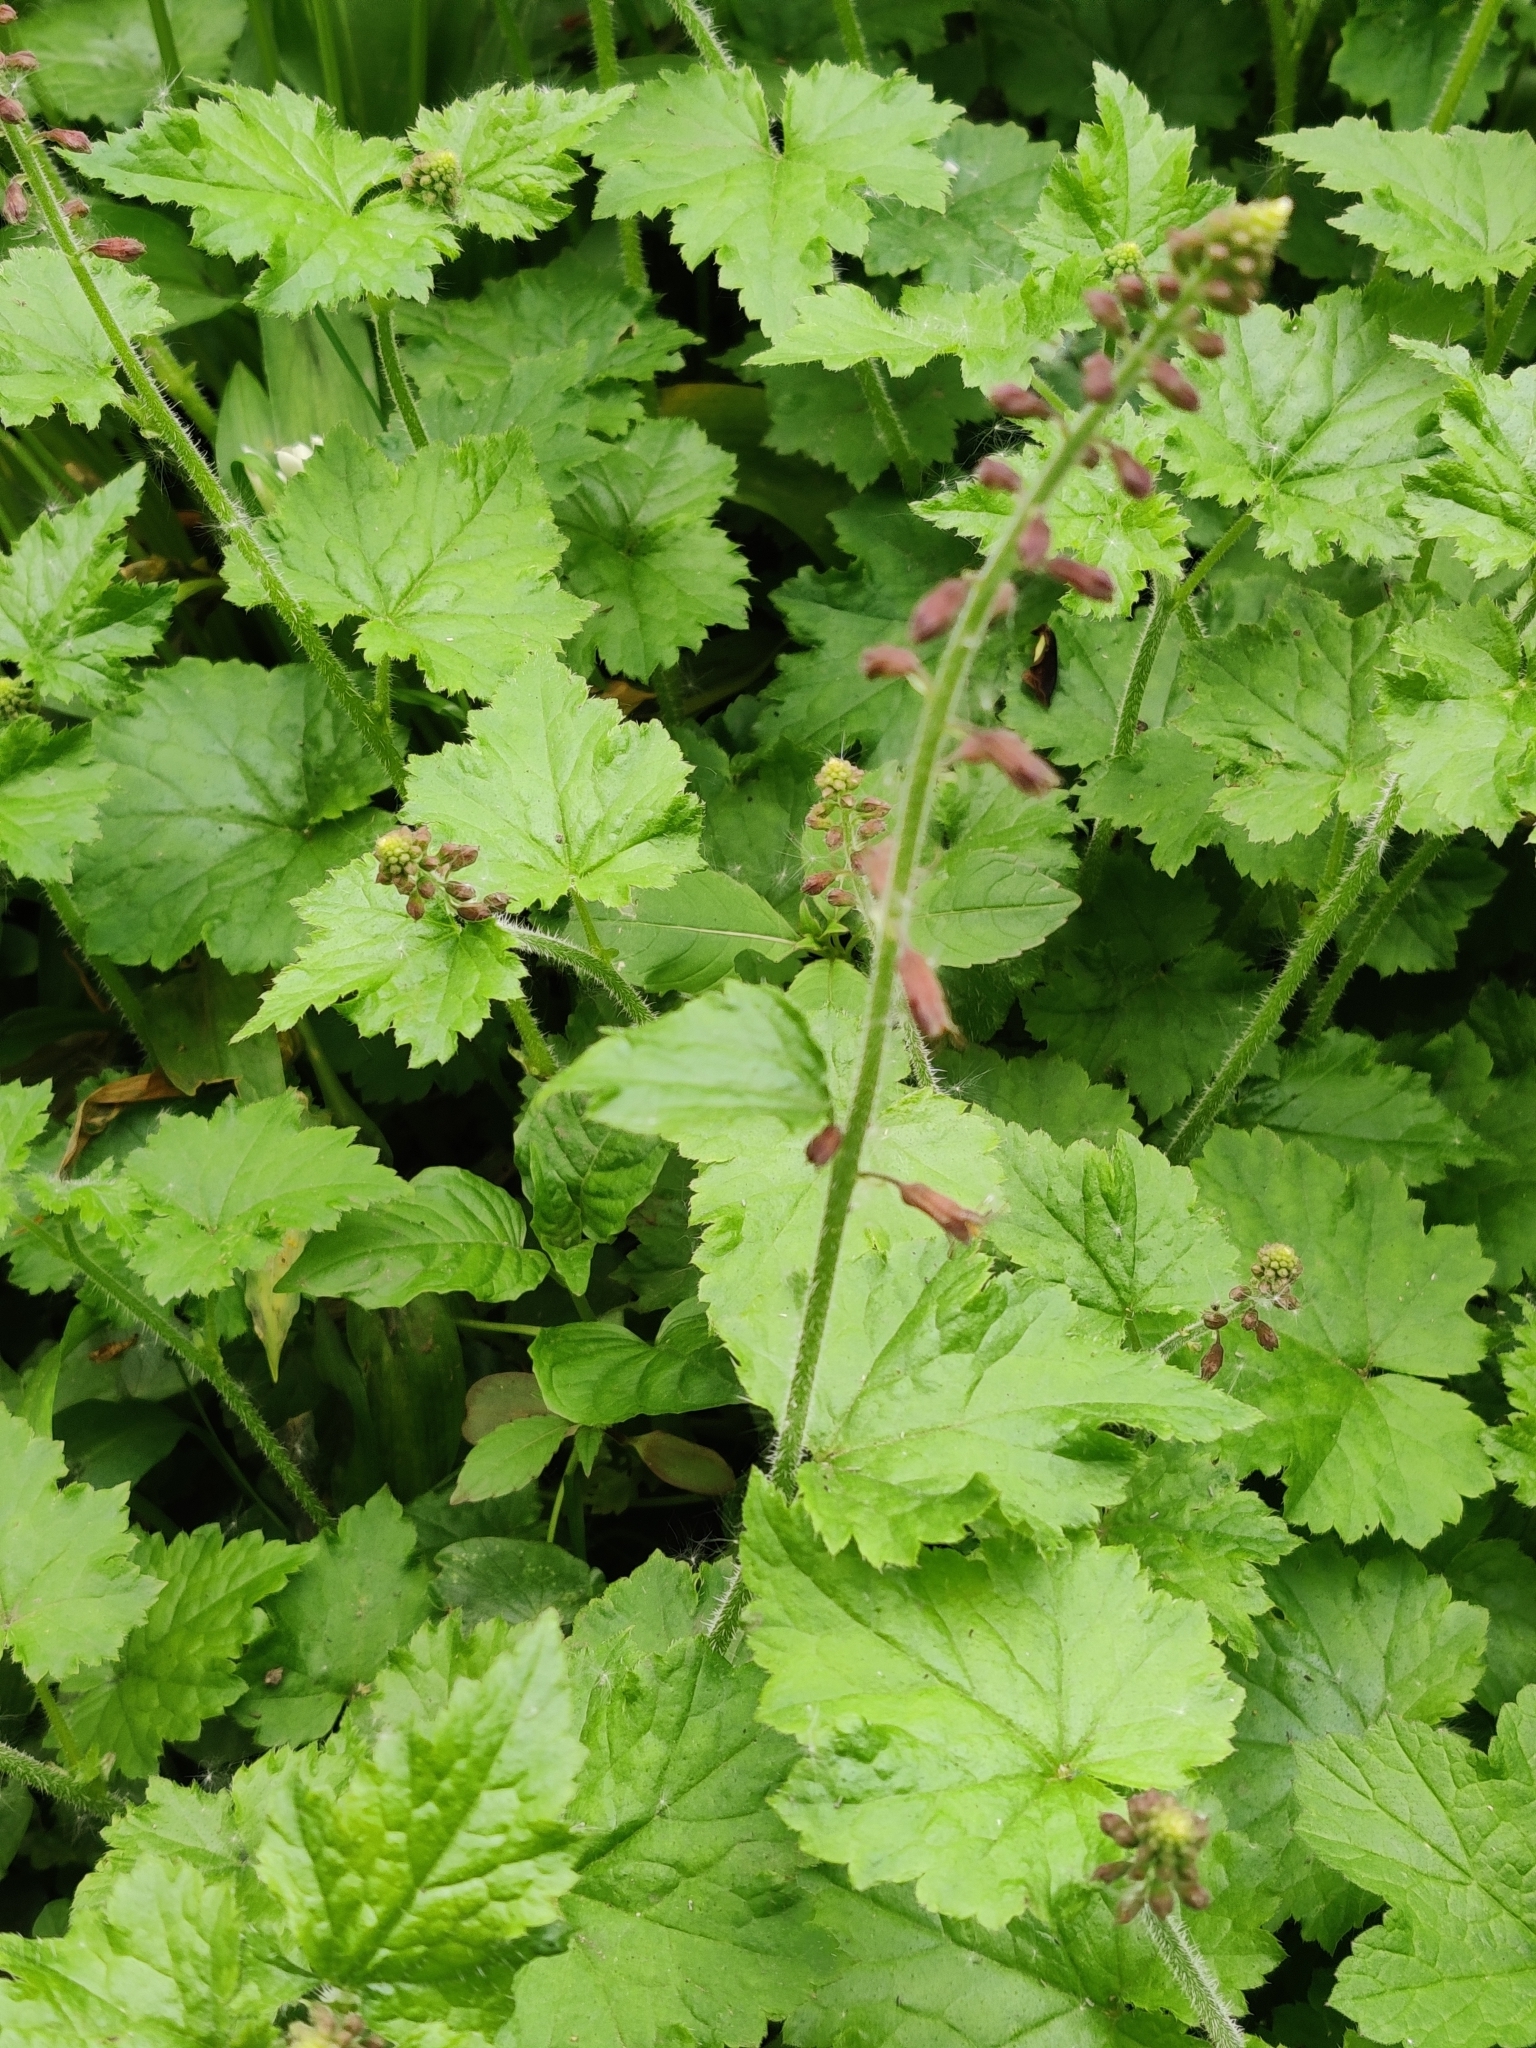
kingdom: Plantae
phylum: Tracheophyta
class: Magnoliopsida
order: Saxifragales
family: Saxifragaceae
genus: Tolmiea
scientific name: Tolmiea menziesii
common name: Pick-a-back-plant
